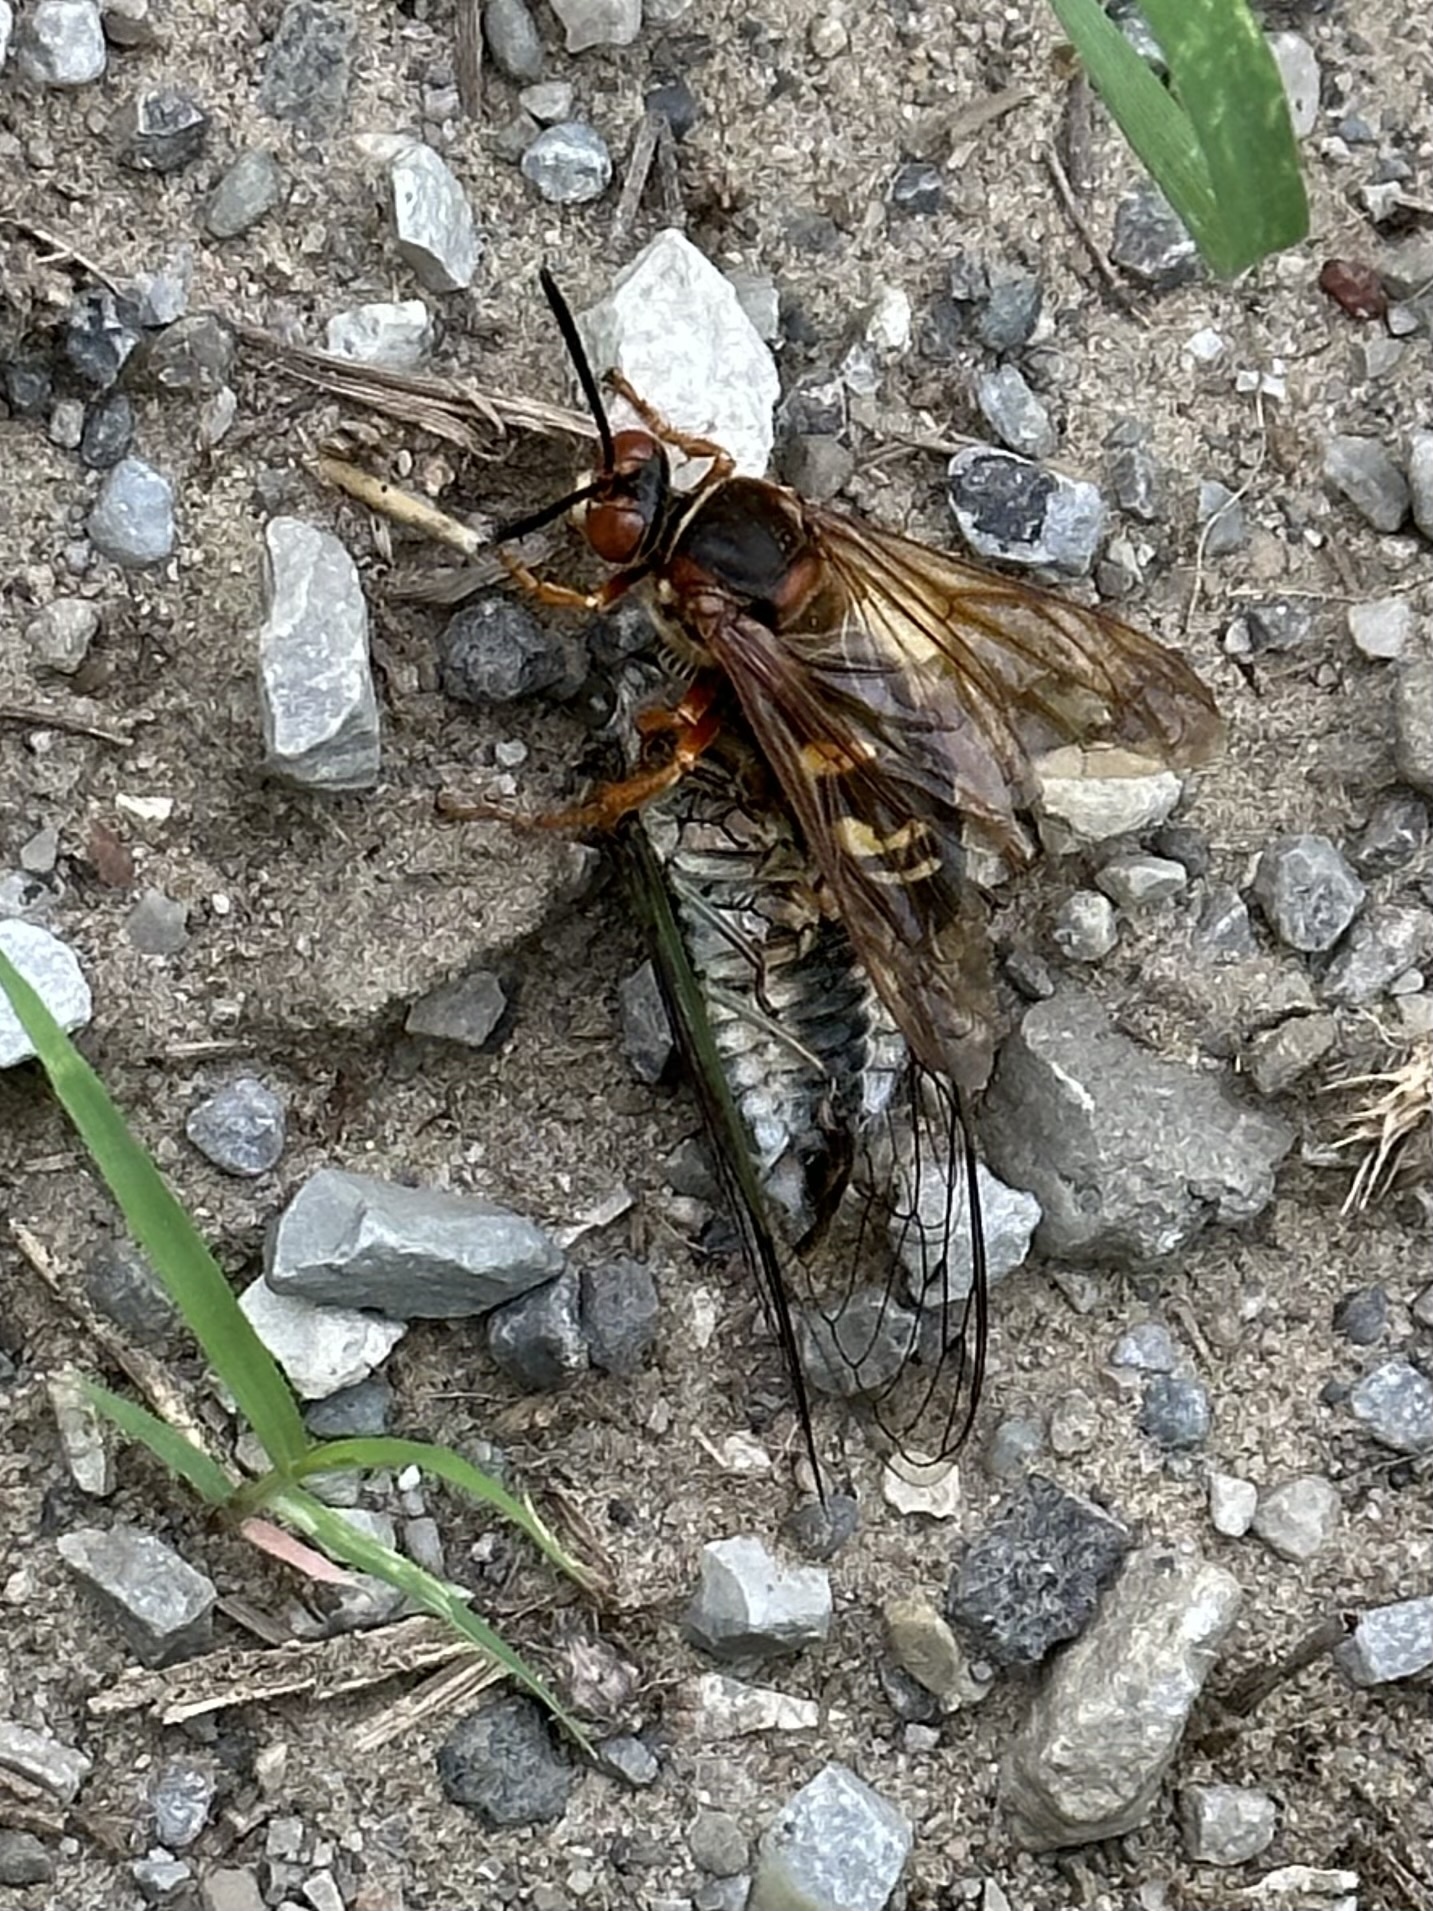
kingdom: Animalia
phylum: Arthropoda
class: Insecta
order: Hymenoptera
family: Crabronidae
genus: Sphecius
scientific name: Sphecius speciosus
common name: Cicada killer
